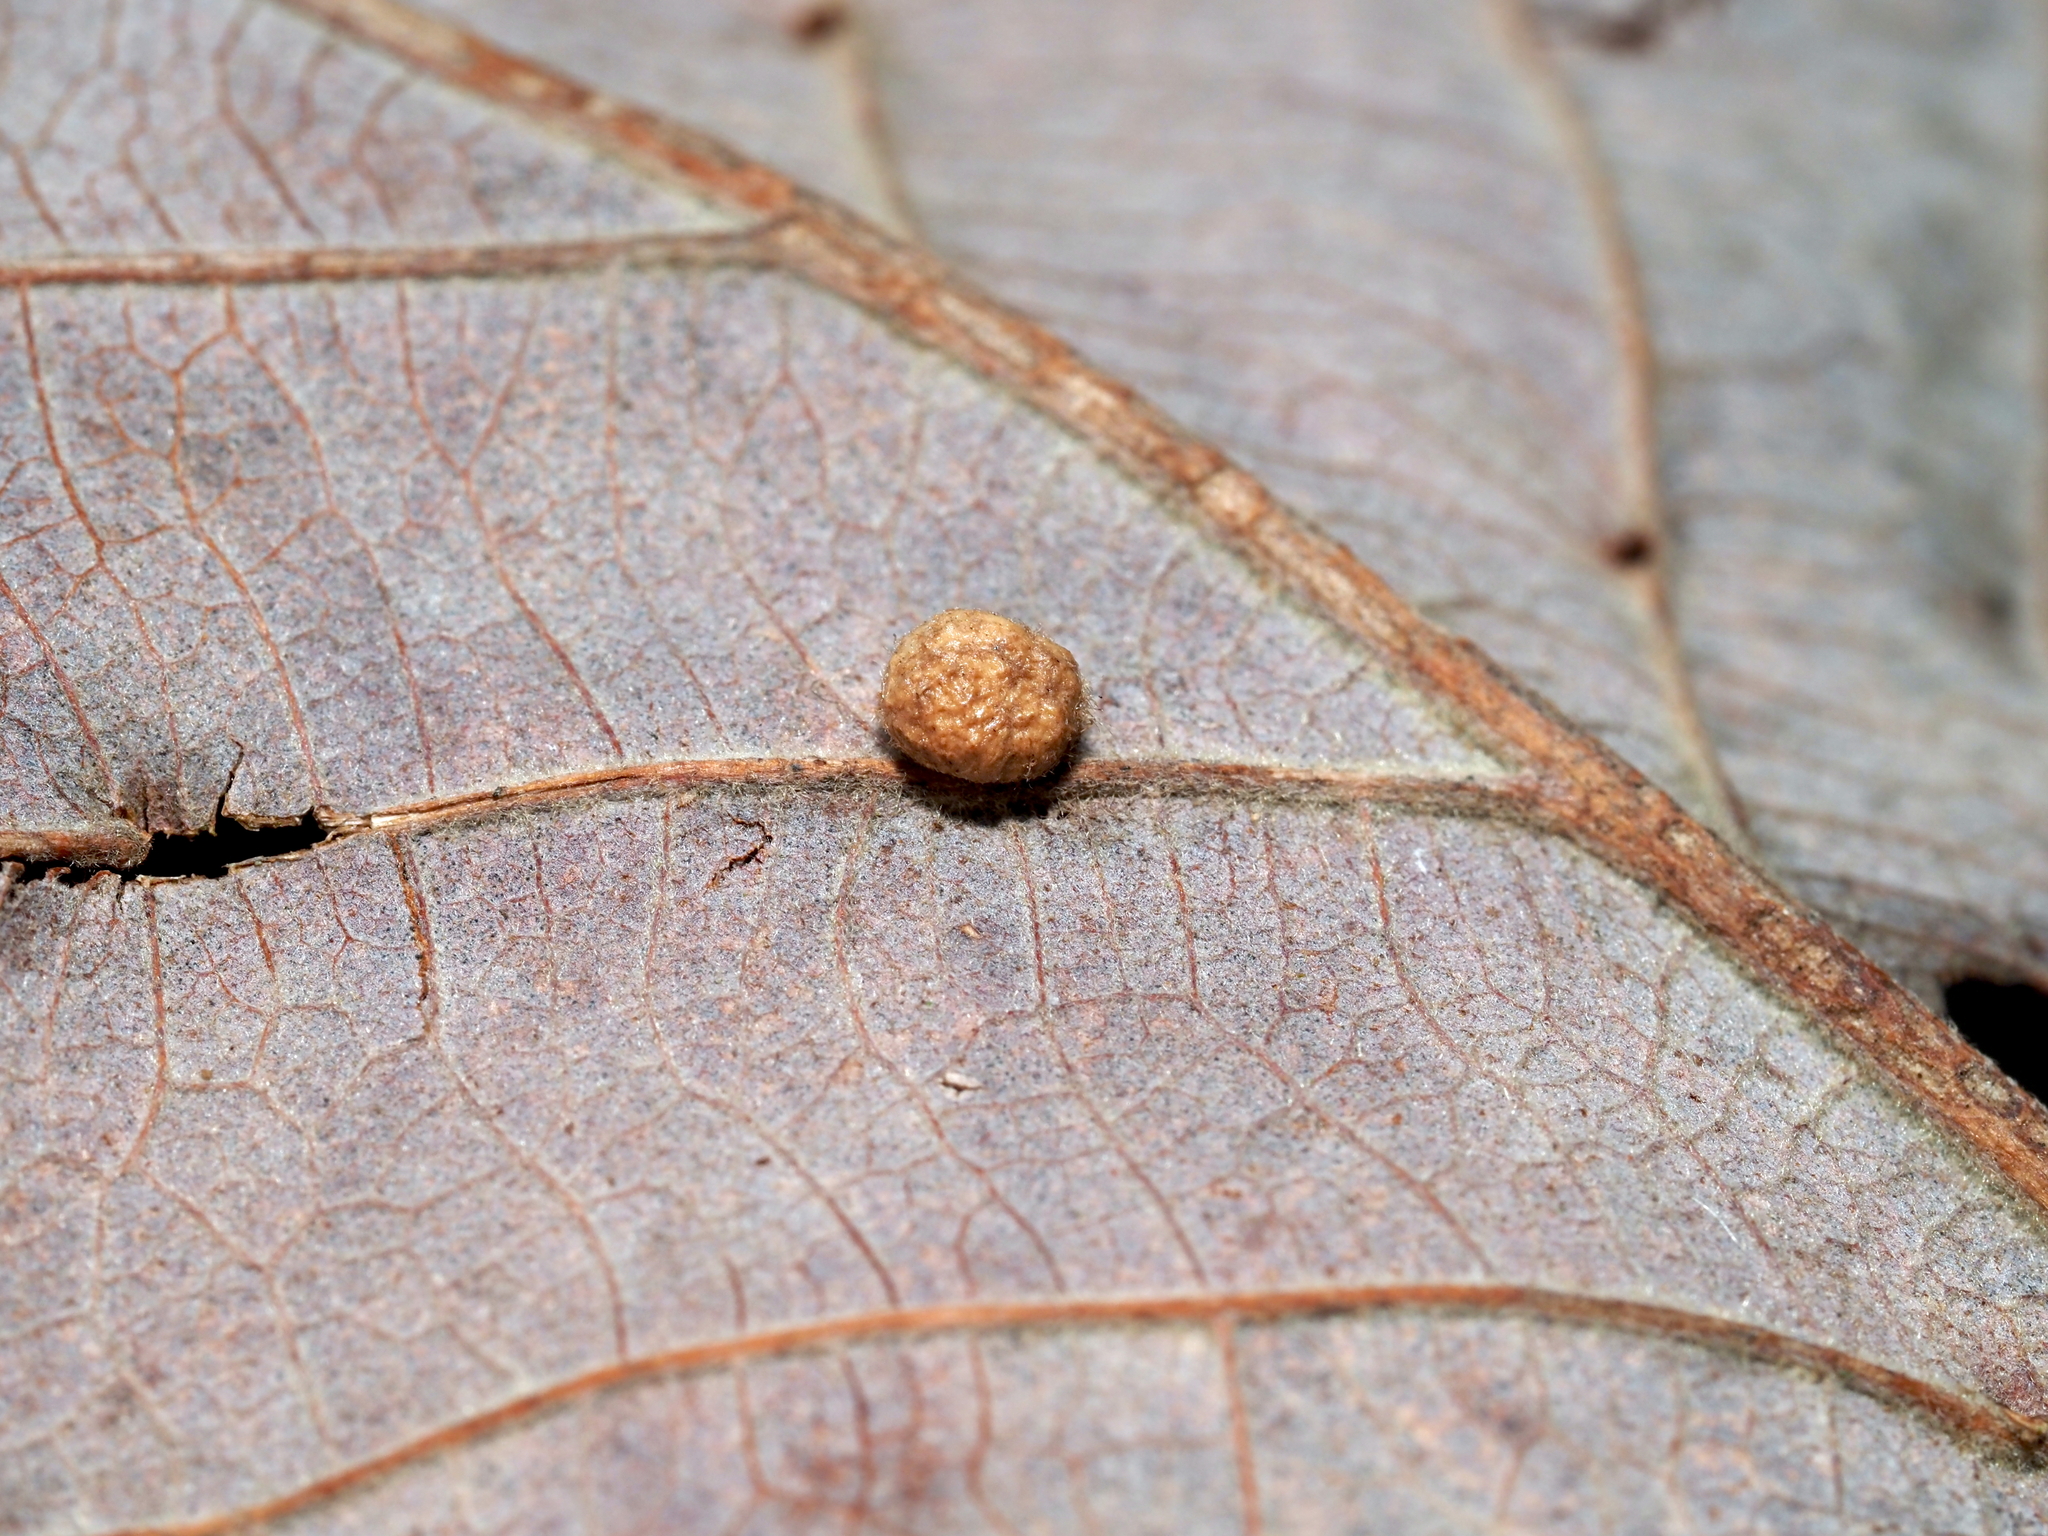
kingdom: Animalia
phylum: Arthropoda
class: Insecta
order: Hymenoptera
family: Cynipidae
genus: Philonix
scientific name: Philonix fulvicollis
